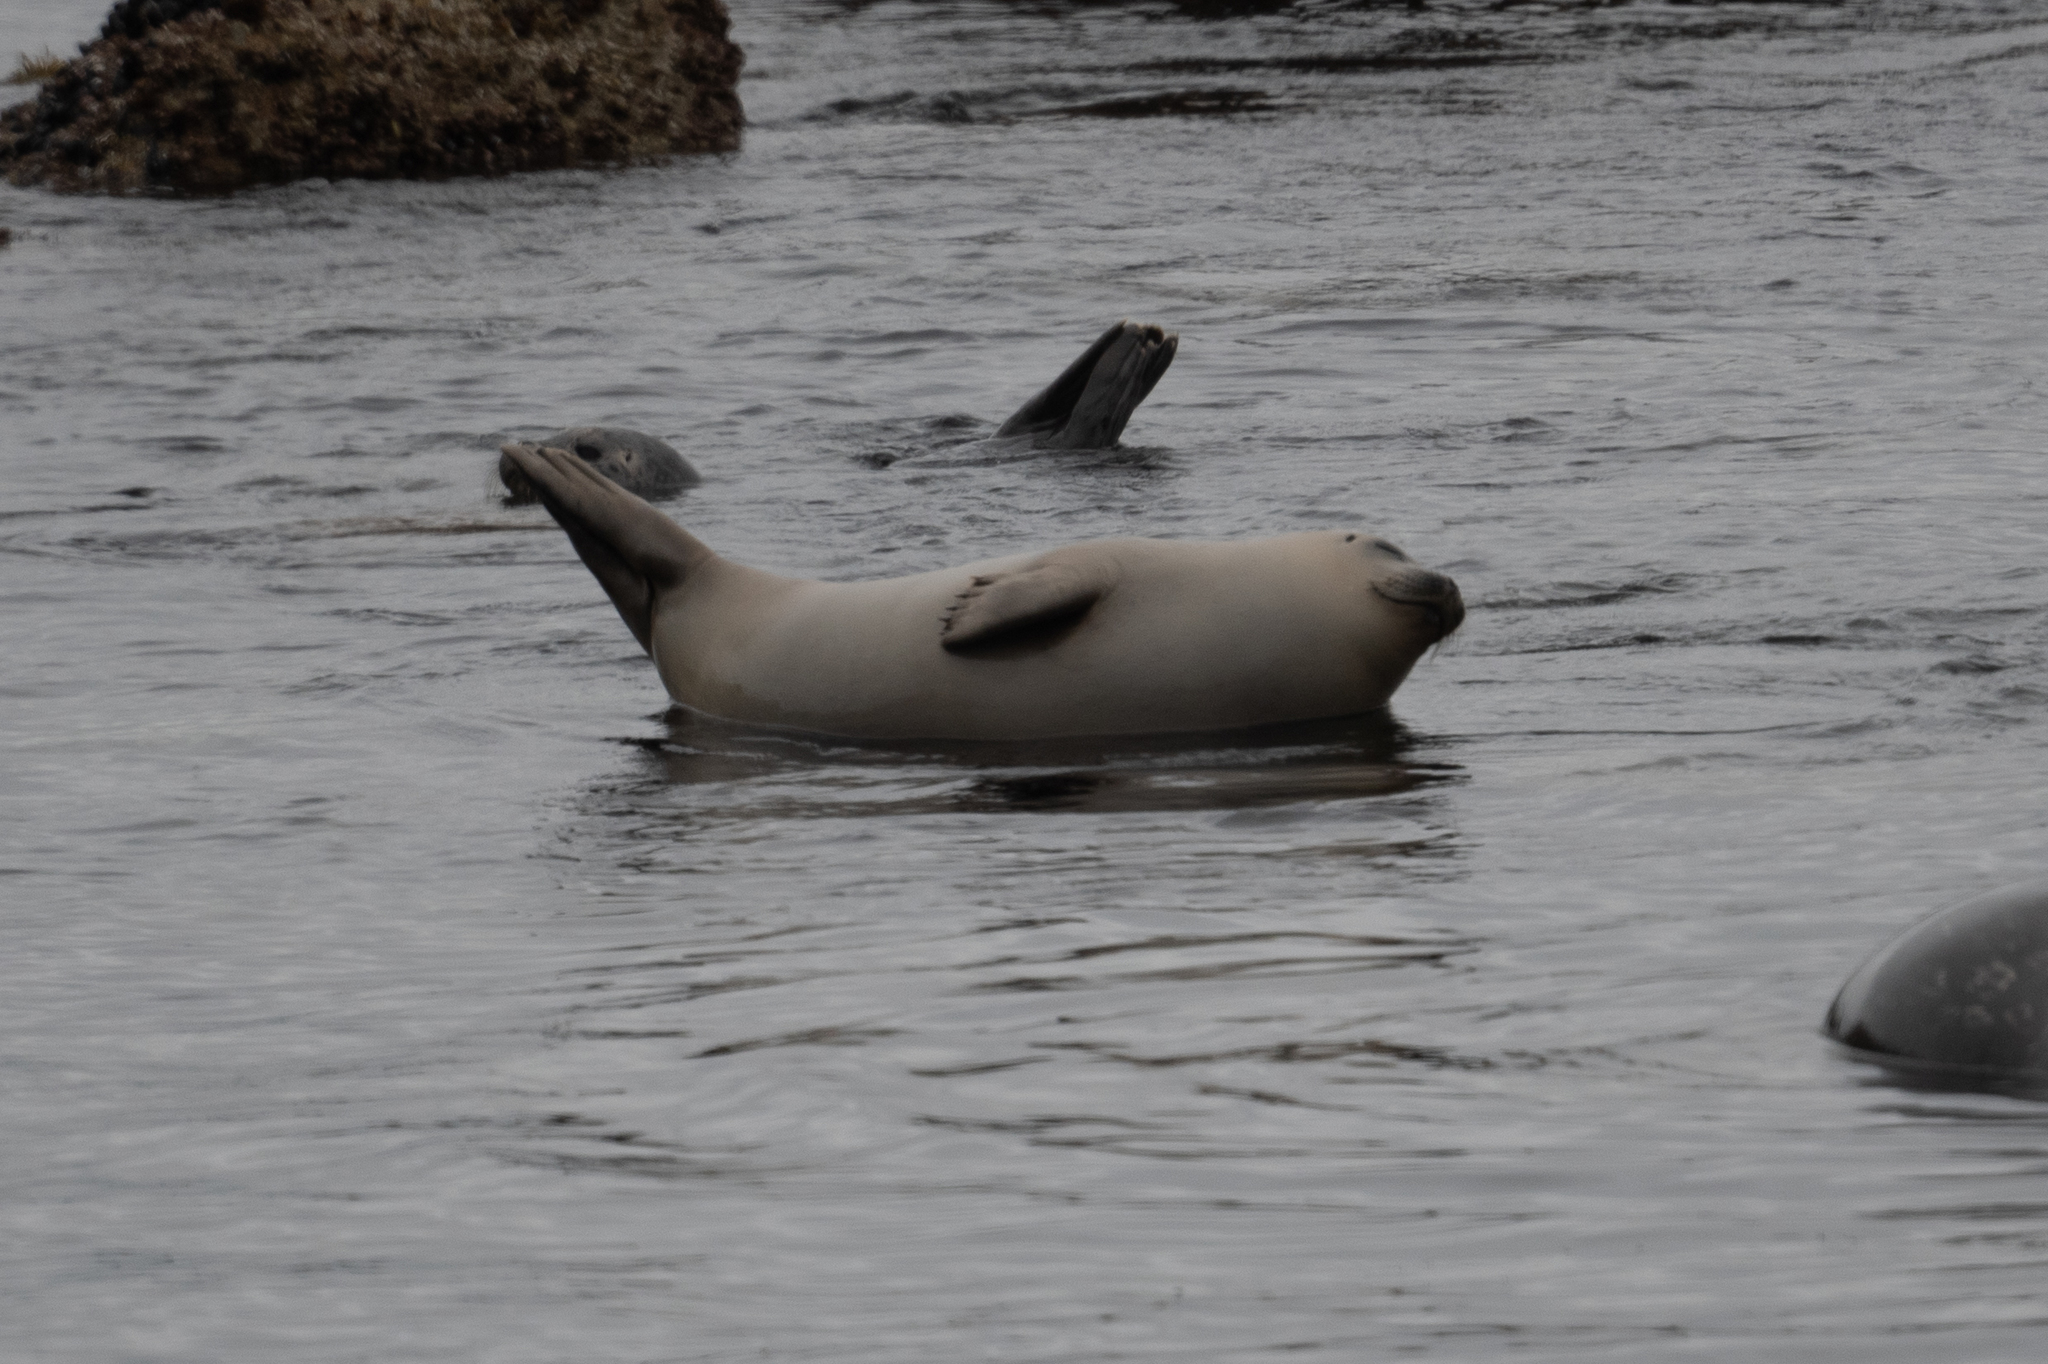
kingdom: Animalia
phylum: Chordata
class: Mammalia
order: Carnivora
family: Phocidae
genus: Phoca
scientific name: Phoca vitulina
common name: Harbor seal
